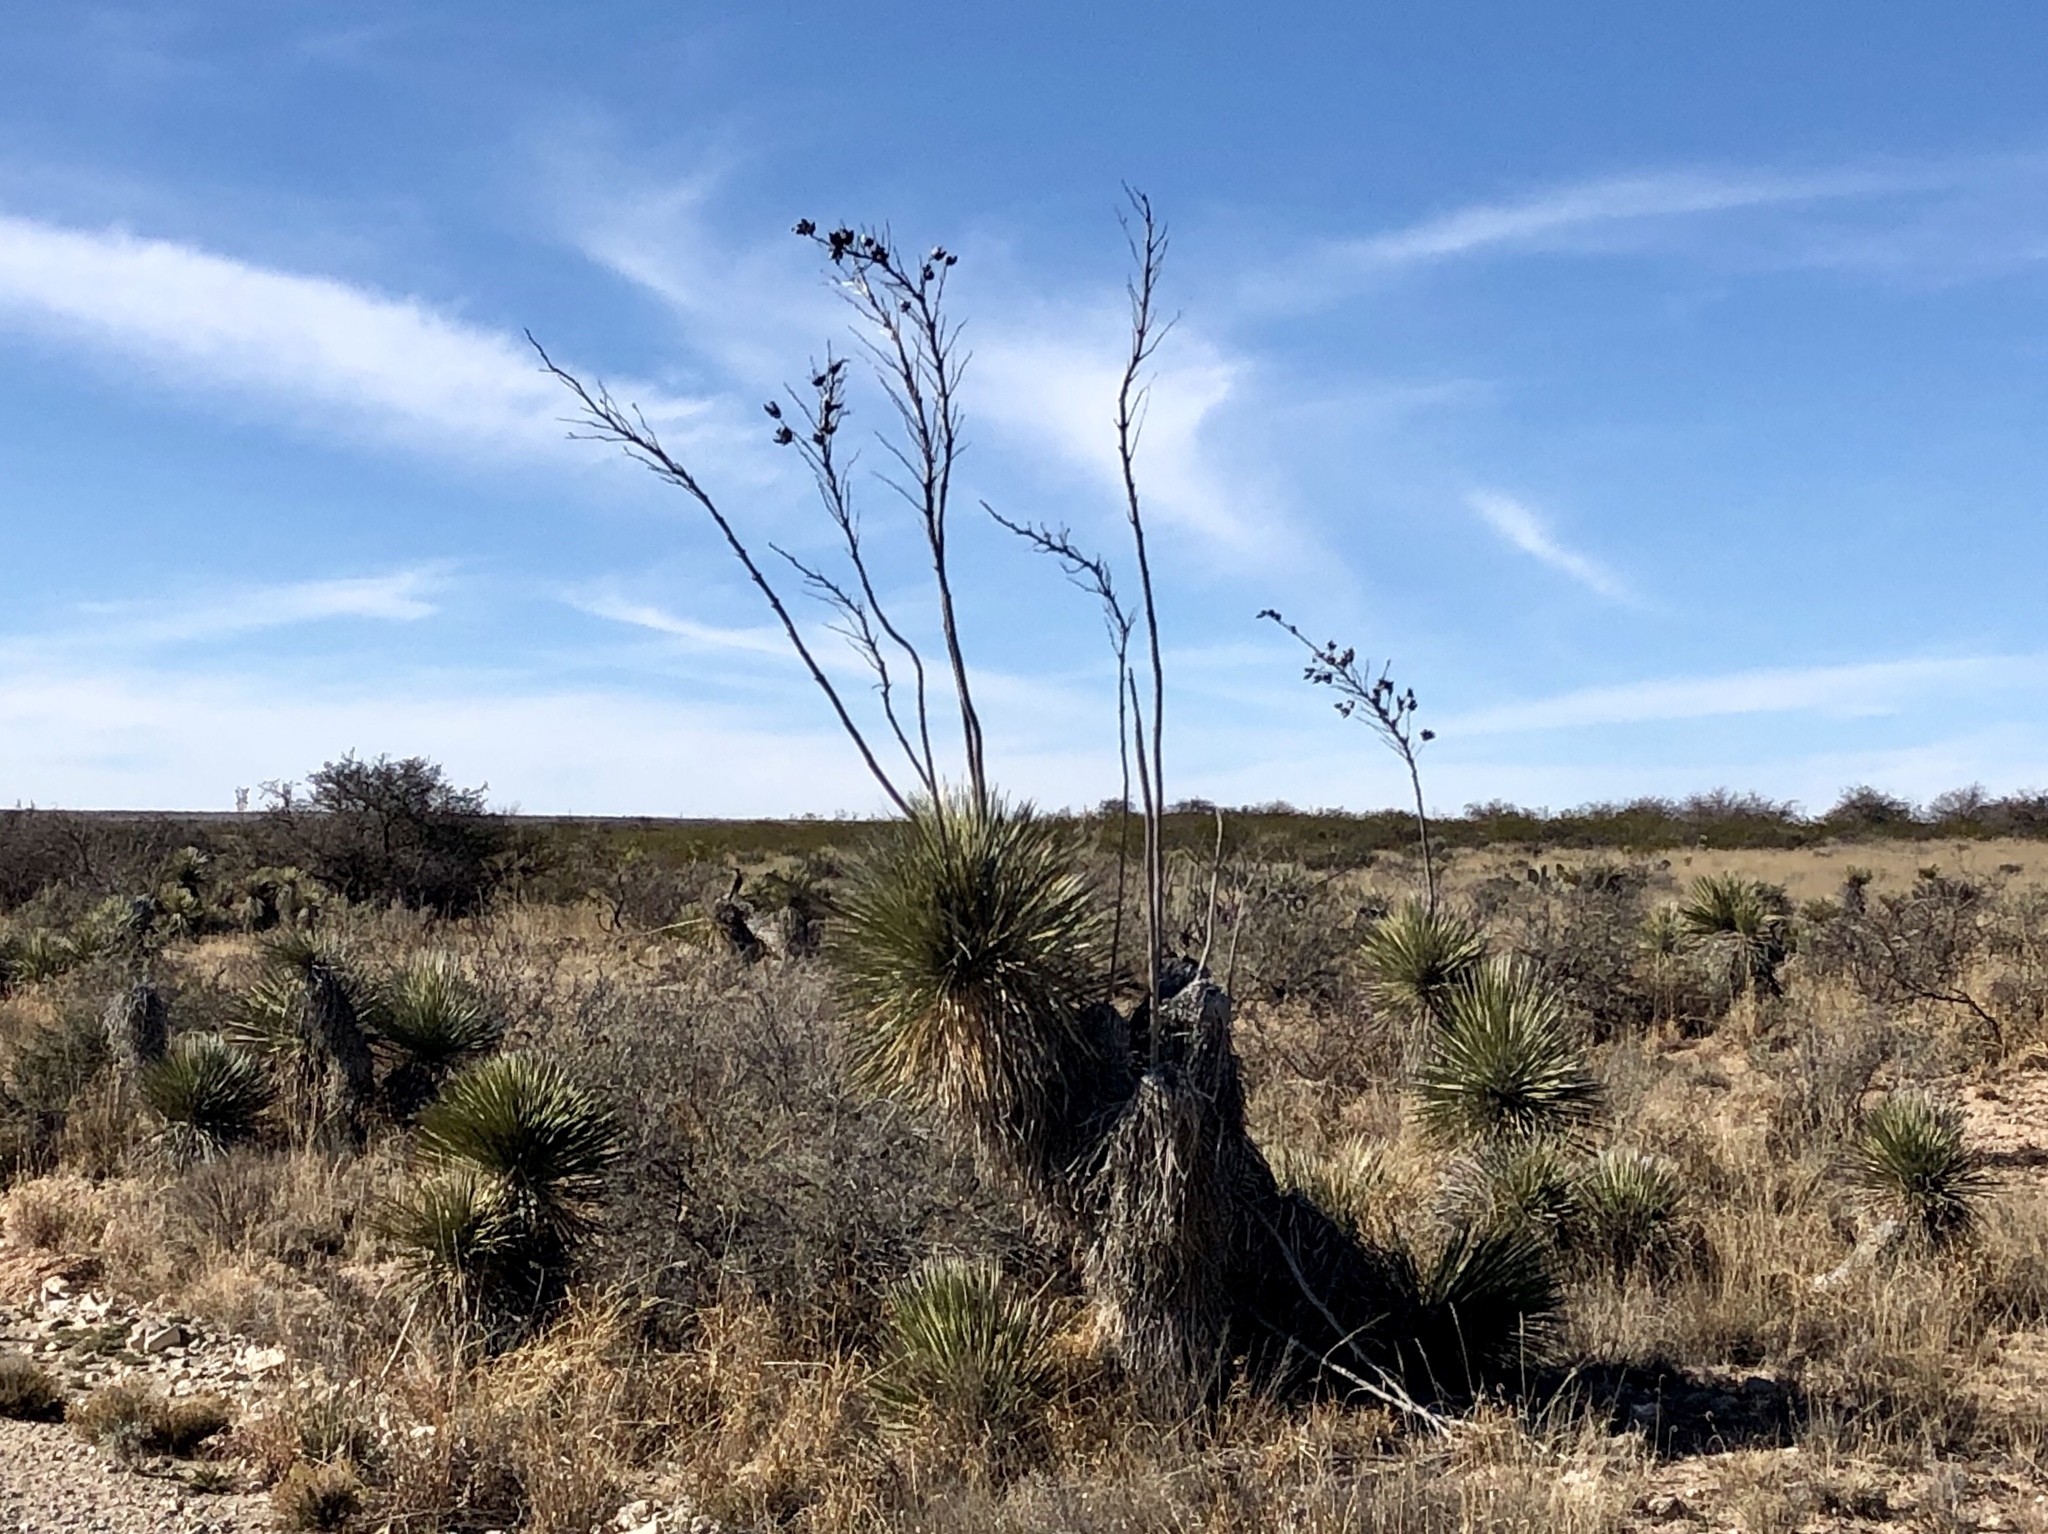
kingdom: Plantae
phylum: Tracheophyta
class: Liliopsida
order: Asparagales
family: Asparagaceae
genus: Yucca
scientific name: Yucca elata
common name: Palmella
